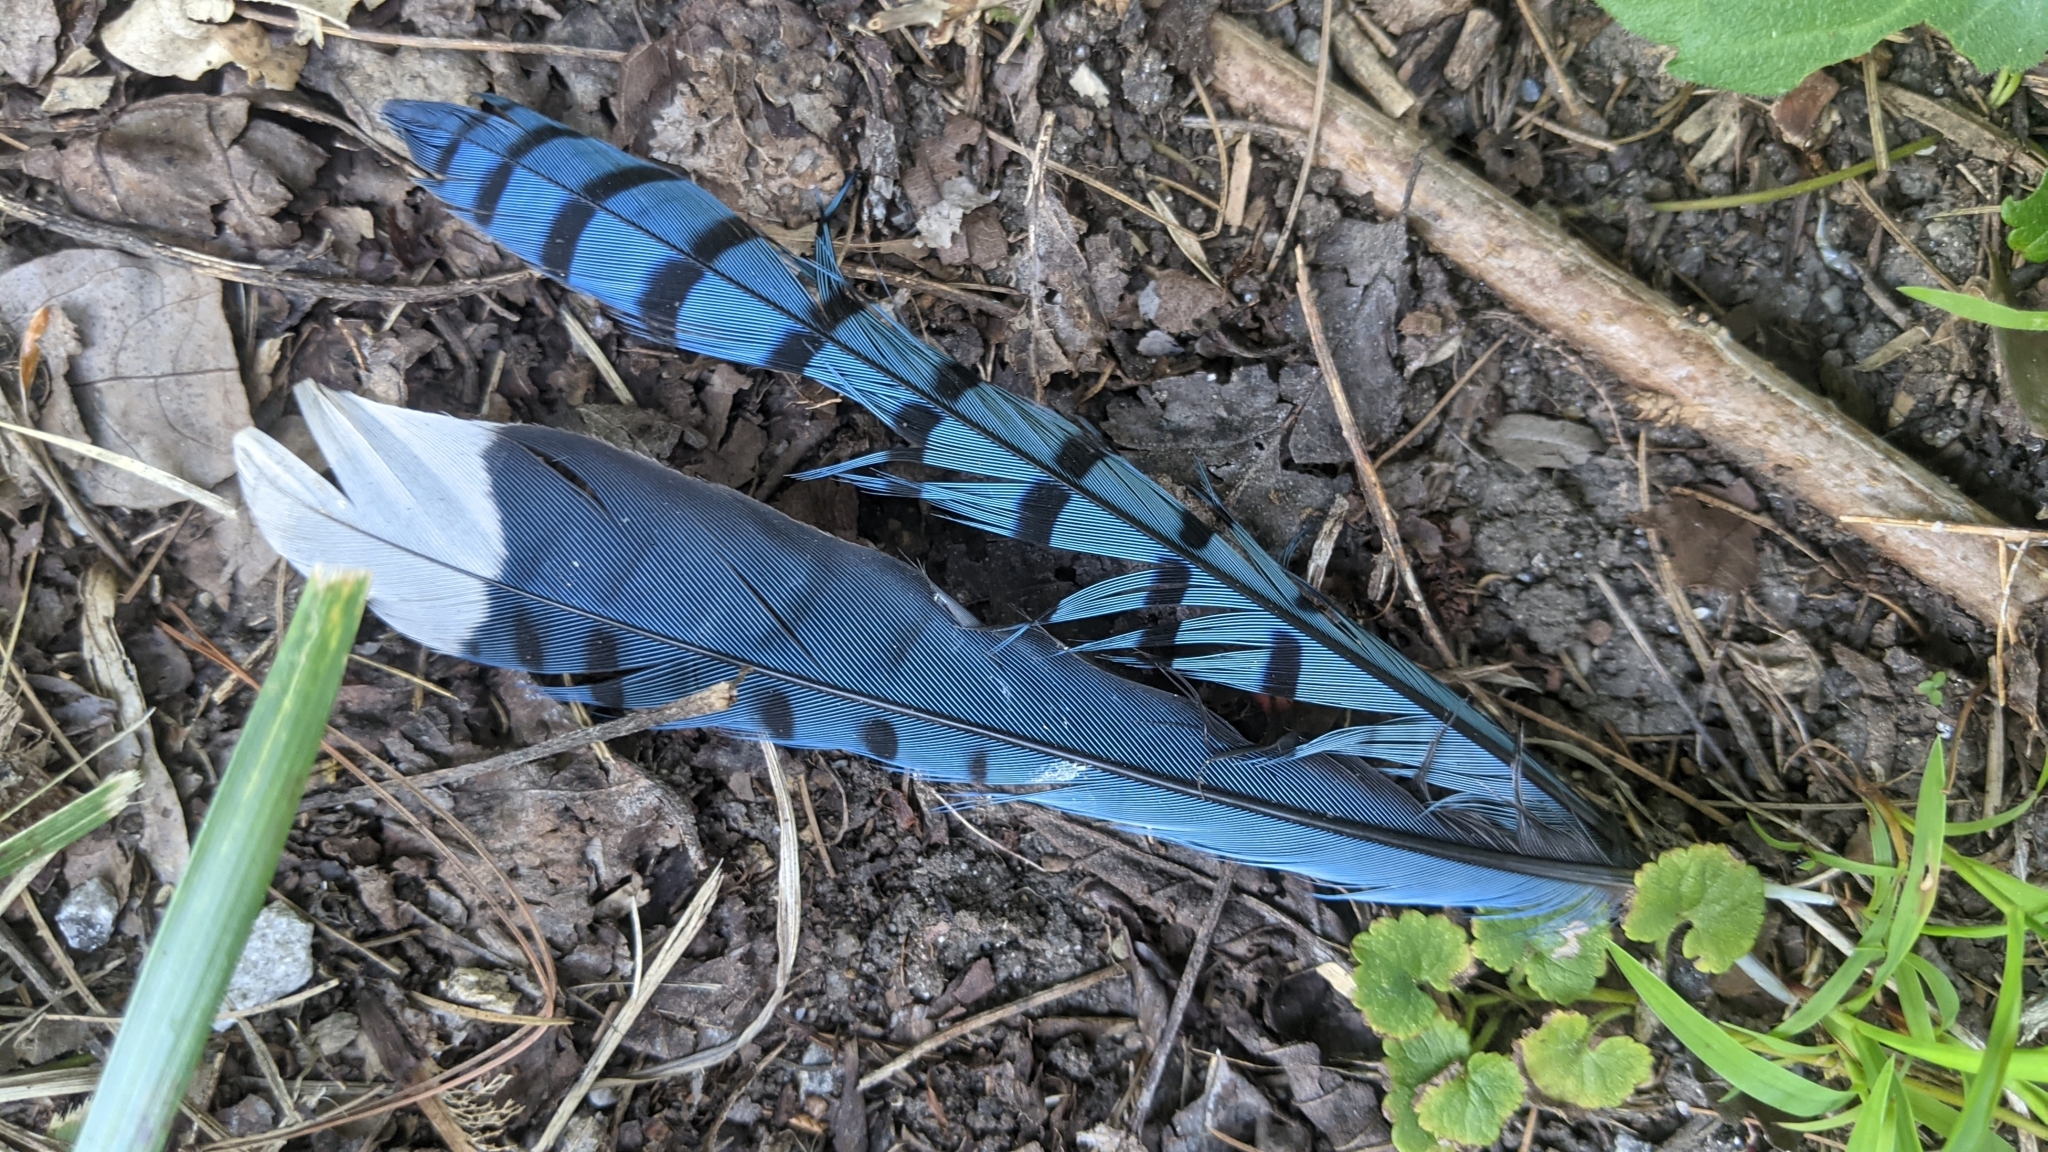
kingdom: Animalia
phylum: Chordata
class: Aves
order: Passeriformes
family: Corvidae
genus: Cyanocitta
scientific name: Cyanocitta cristata
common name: Blue jay
